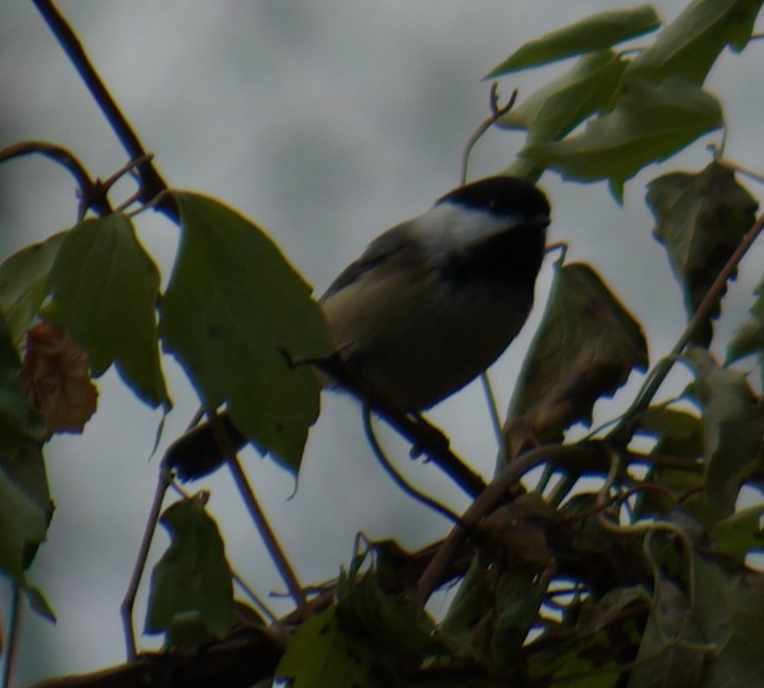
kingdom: Animalia
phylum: Chordata
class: Aves
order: Passeriformes
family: Paridae
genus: Poecile
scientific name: Poecile atricapillus
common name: Black-capped chickadee
